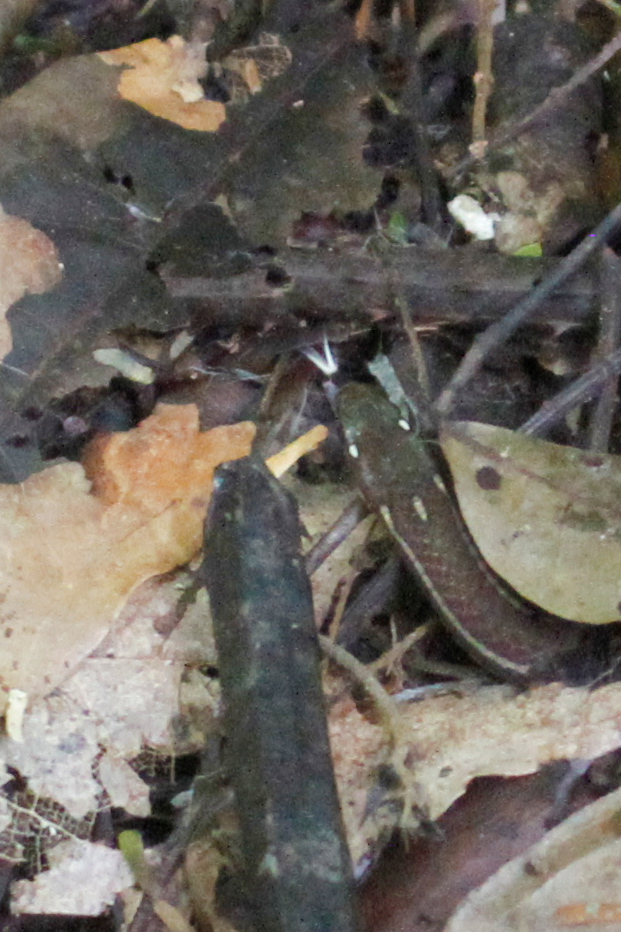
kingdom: Animalia
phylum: Chordata
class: Squamata
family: Colubridae
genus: Rhadinaea
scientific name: Rhadinaea decorata
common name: Adorned graceful brown snake
